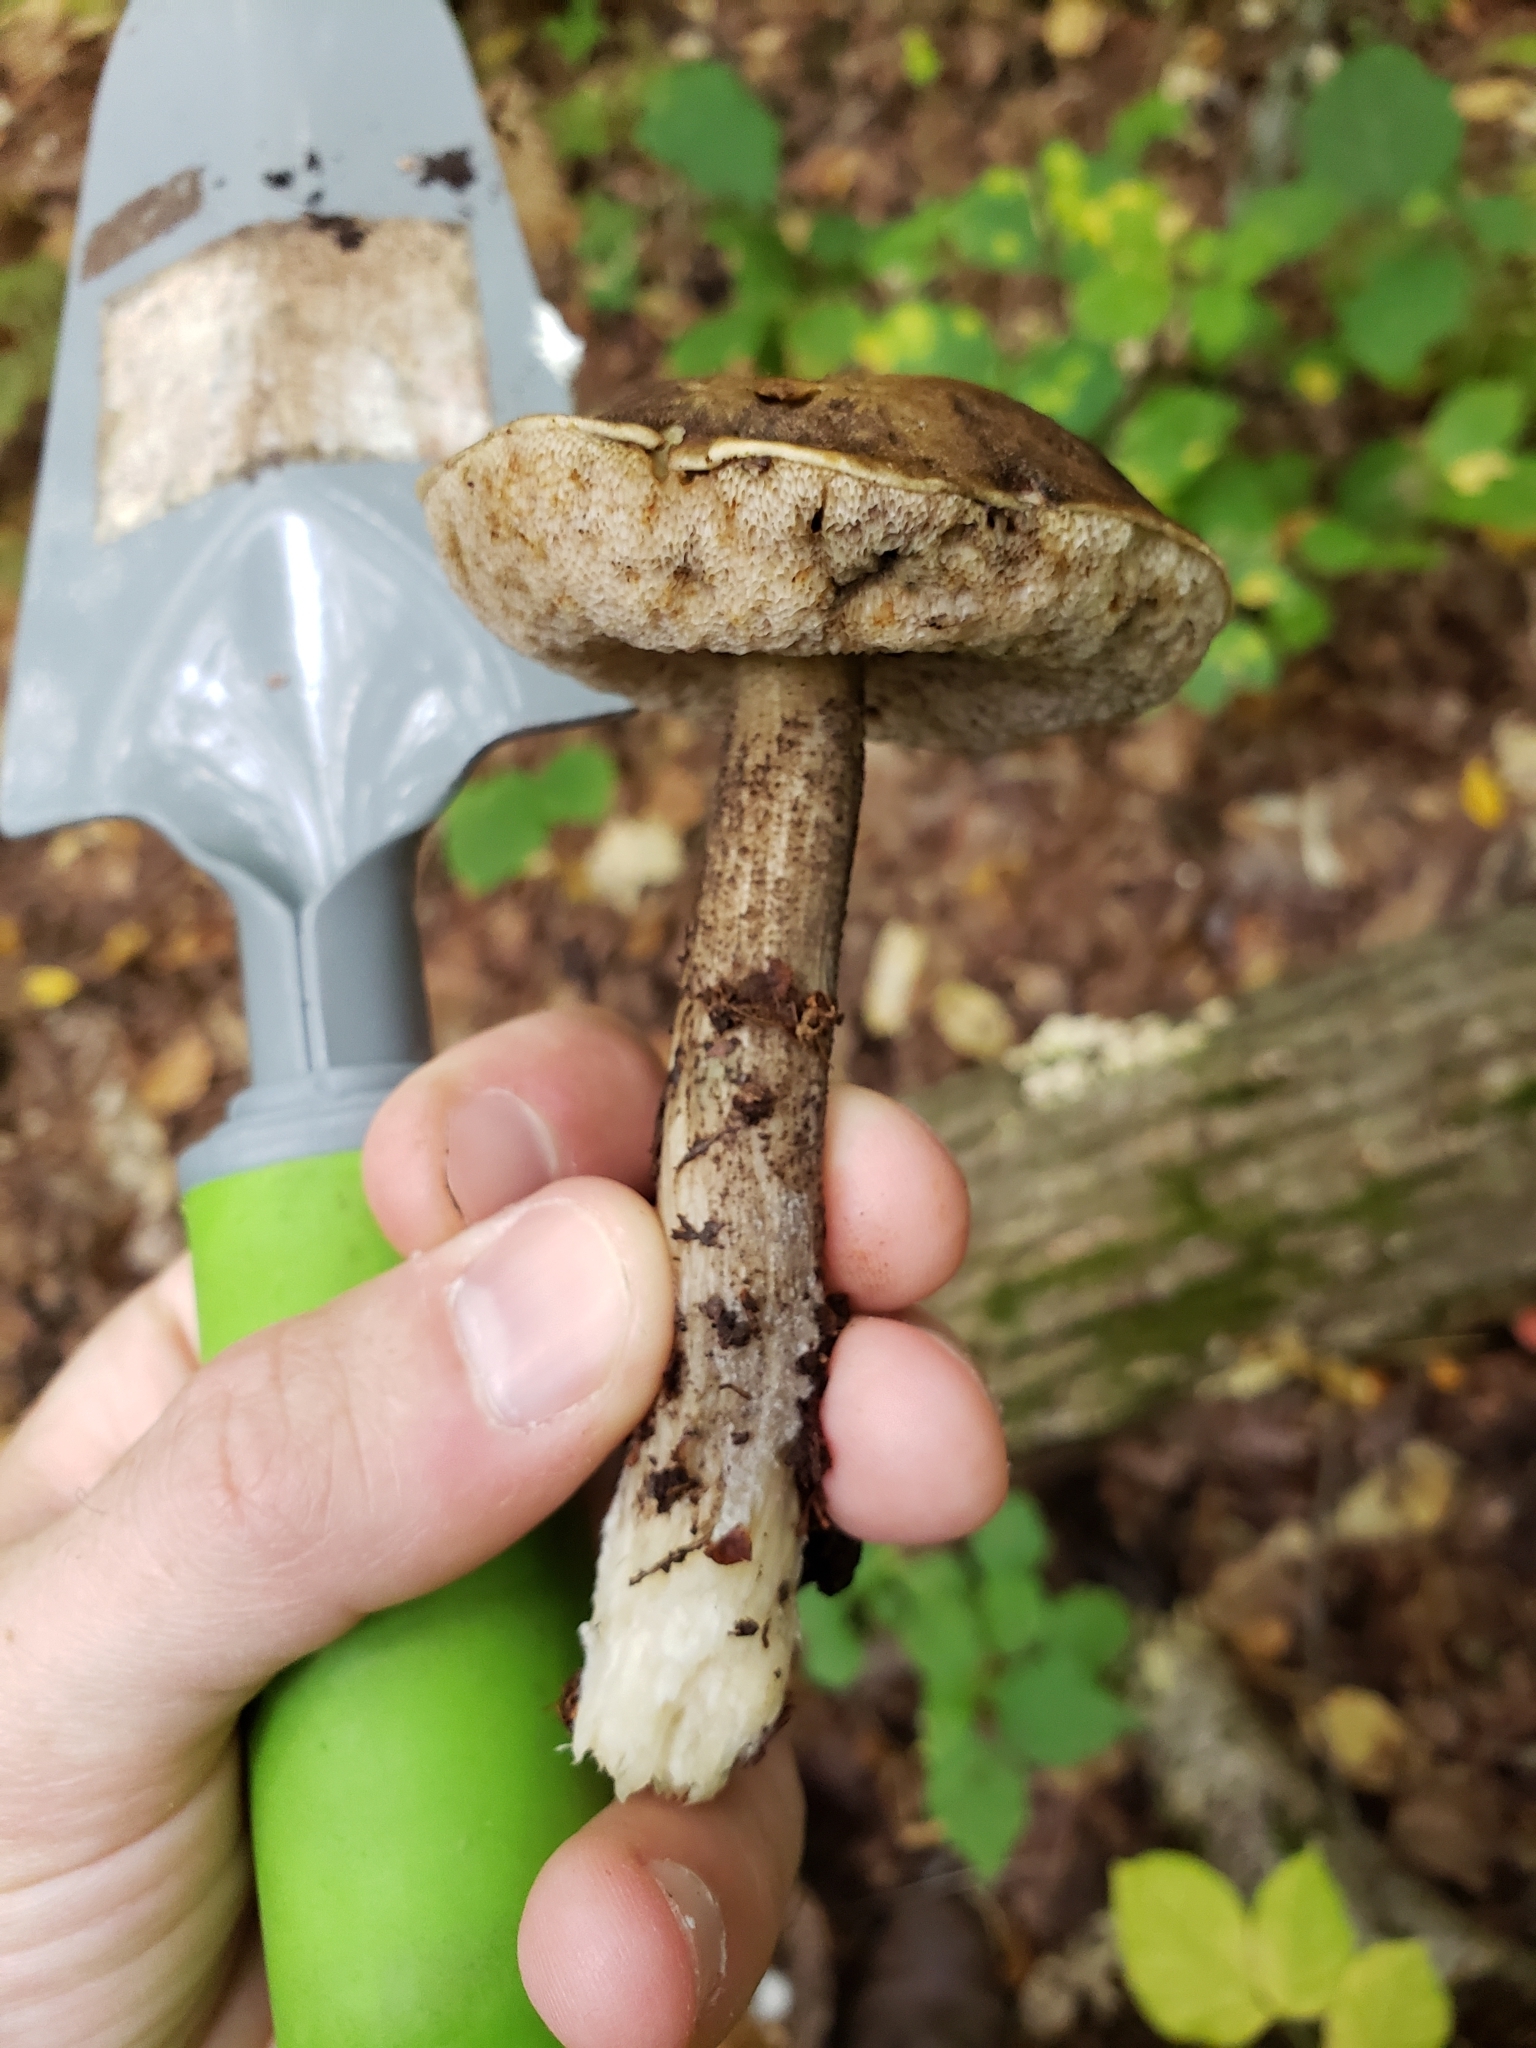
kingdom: Fungi
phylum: Basidiomycota
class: Agaricomycetes
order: Boletales
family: Boletaceae
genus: Leccinum
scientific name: Leccinum
